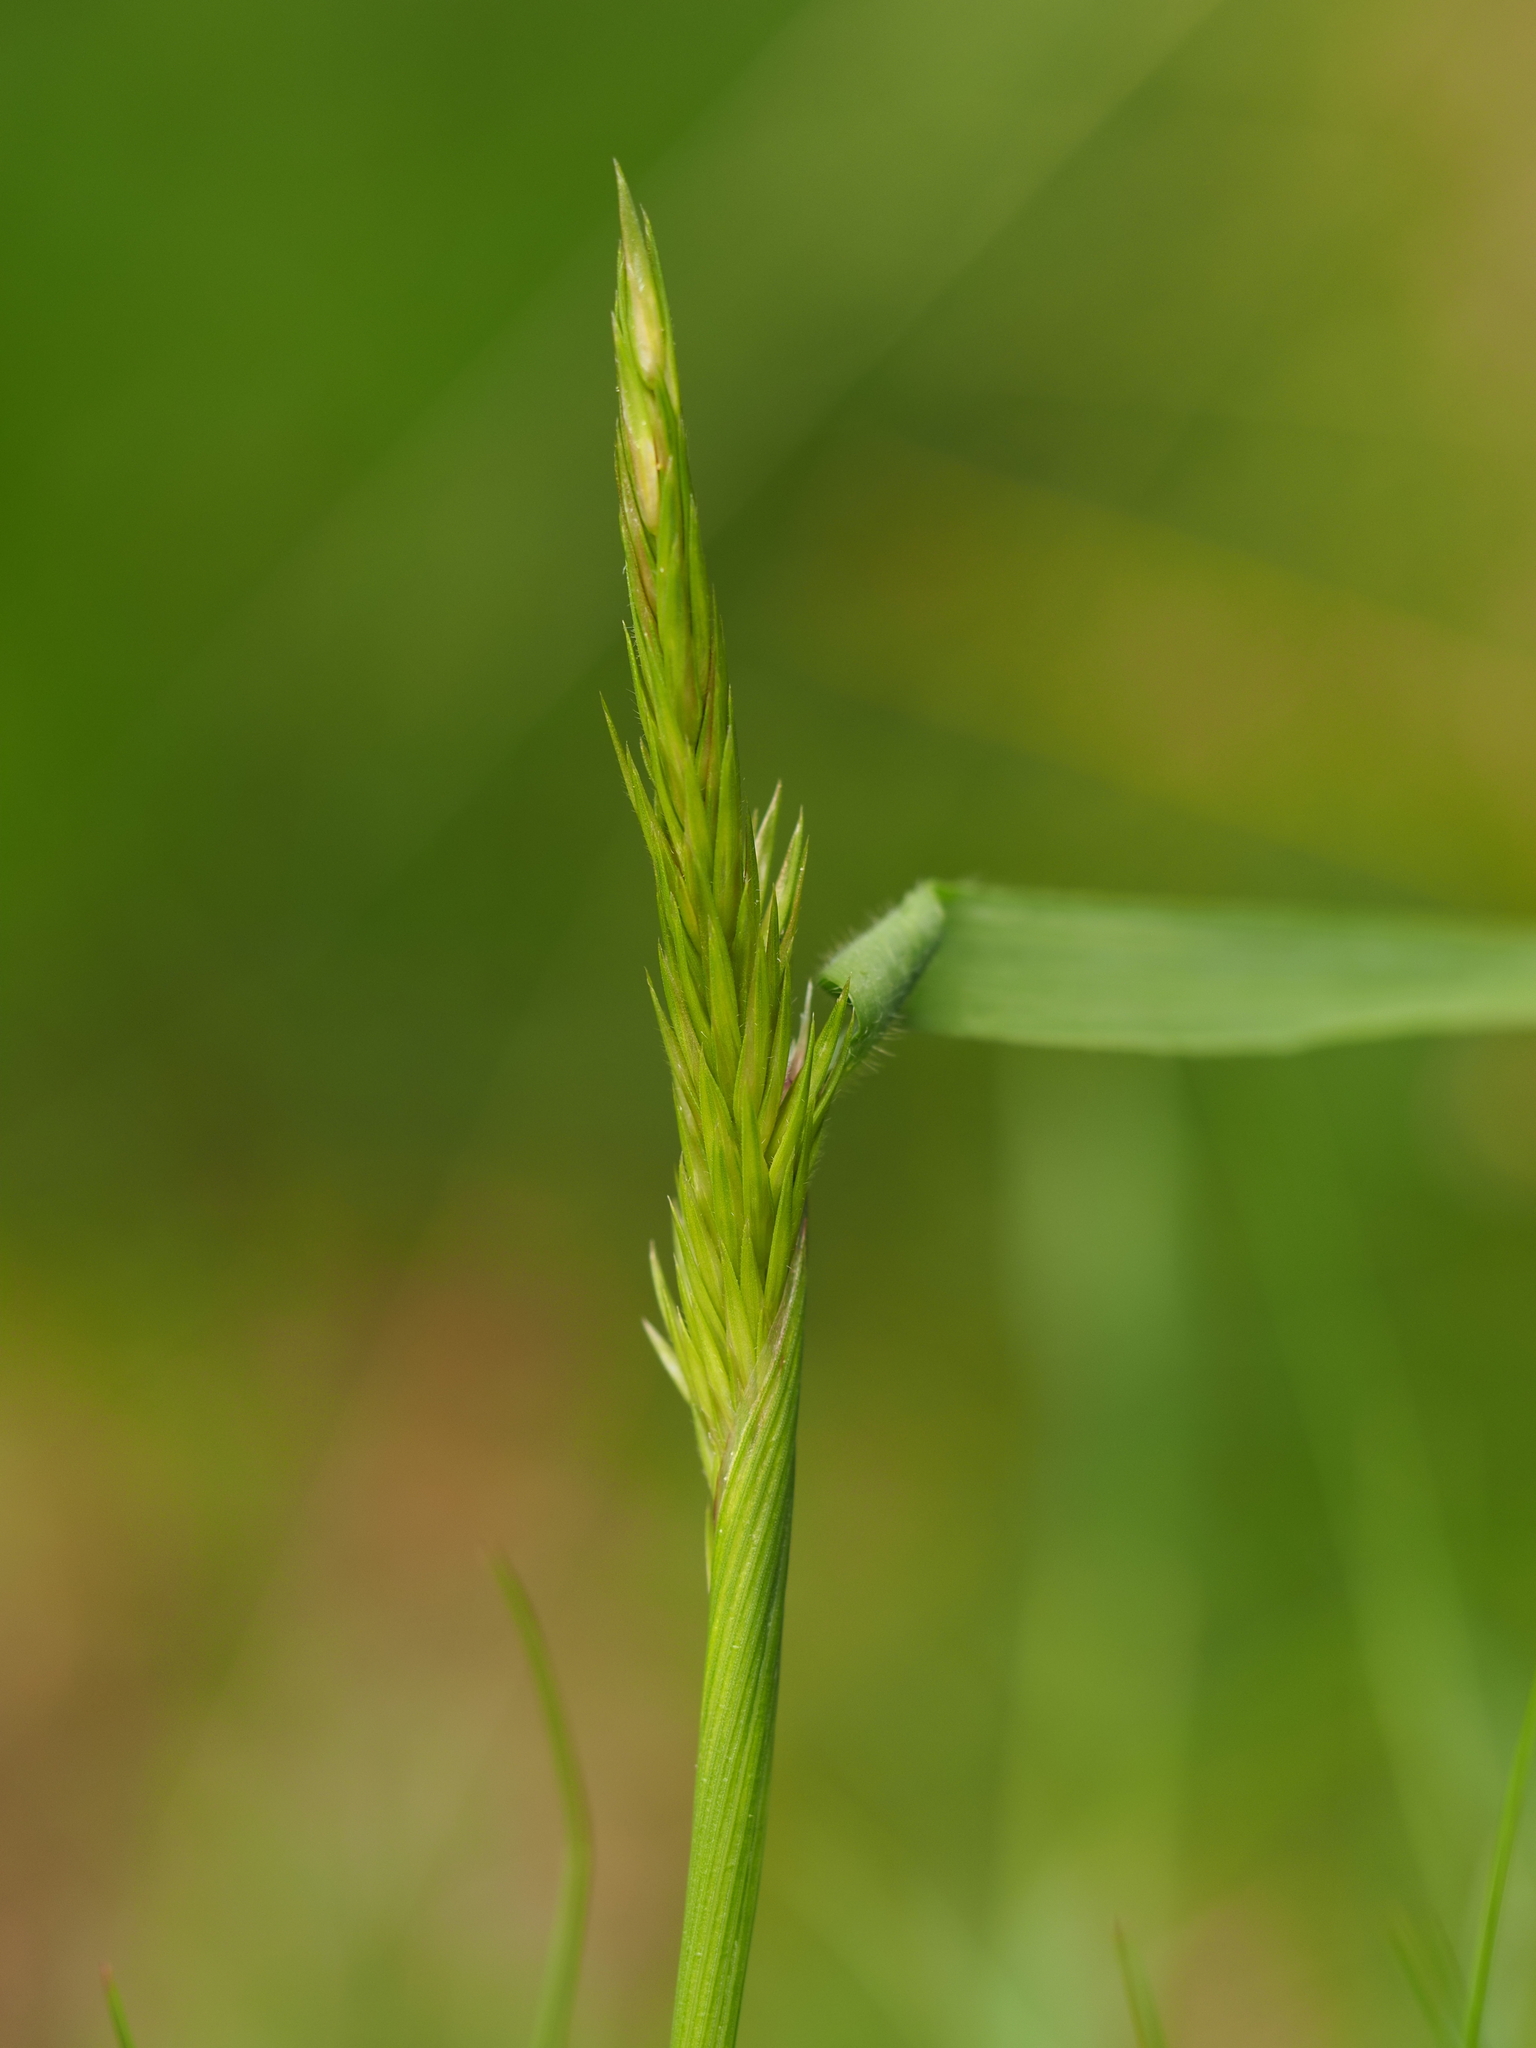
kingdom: Plantae
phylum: Tracheophyta
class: Liliopsida
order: Poales
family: Poaceae
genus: Anthoxanthum
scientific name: Anthoxanthum odoratum
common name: Sweet vernalgrass
